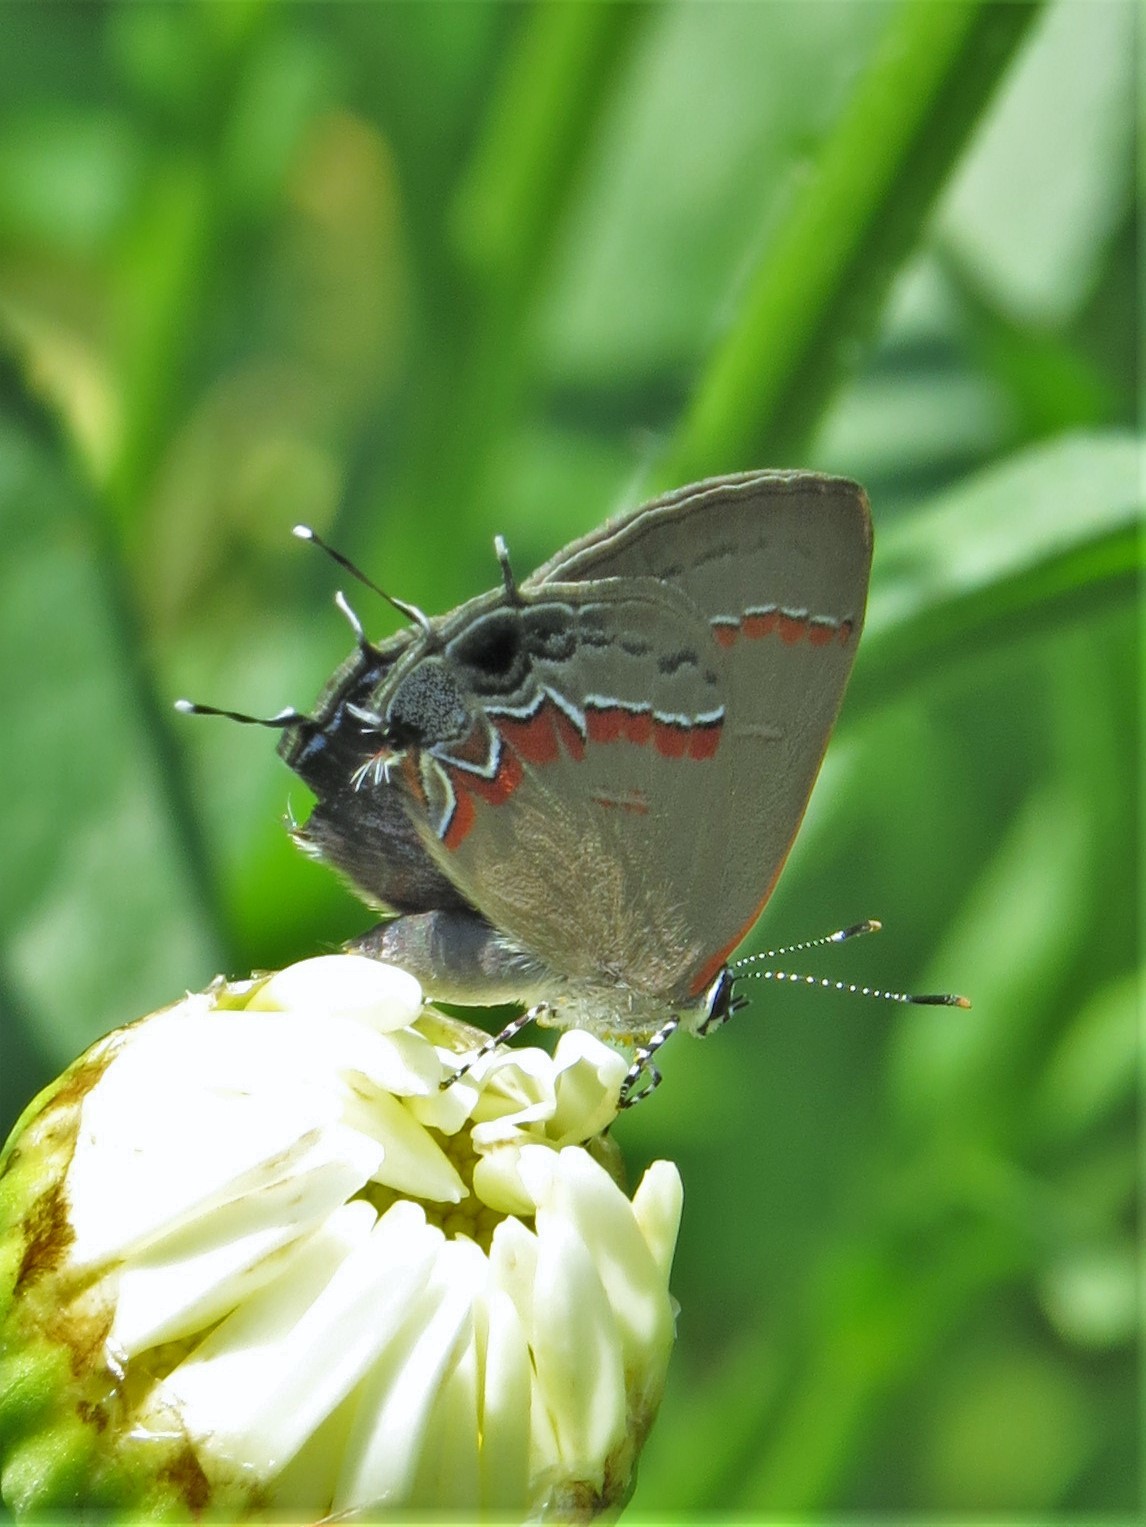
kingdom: Animalia
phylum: Arthropoda
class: Insecta
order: Lepidoptera
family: Lycaenidae
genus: Calycopis
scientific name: Calycopis cecrops
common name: Red-banded hairstreak
